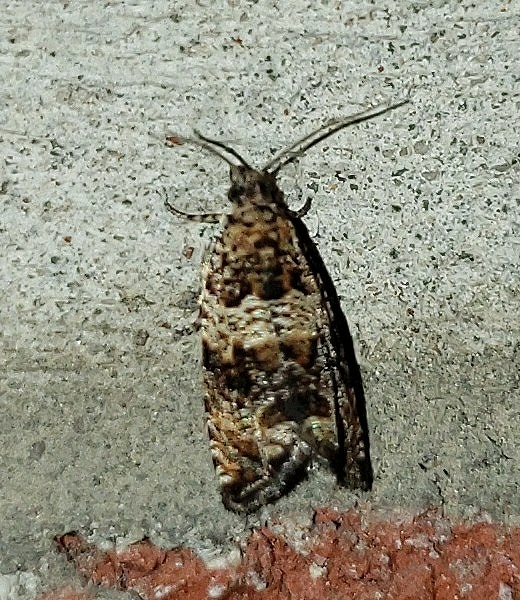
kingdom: Animalia
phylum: Arthropoda
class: Insecta
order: Lepidoptera
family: Tortricidae
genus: Celypha
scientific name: Celypha cespitana
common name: Thyme marble
